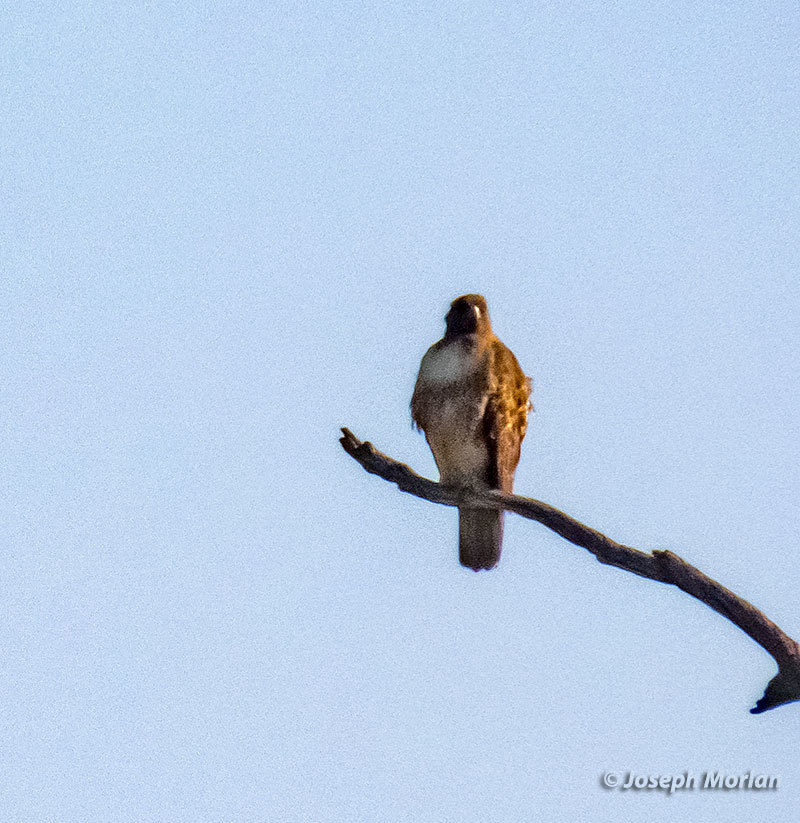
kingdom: Animalia
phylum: Chordata
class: Aves
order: Accipitriformes
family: Accipitridae
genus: Buteo
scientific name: Buteo jamaicensis
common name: Red-tailed hawk
